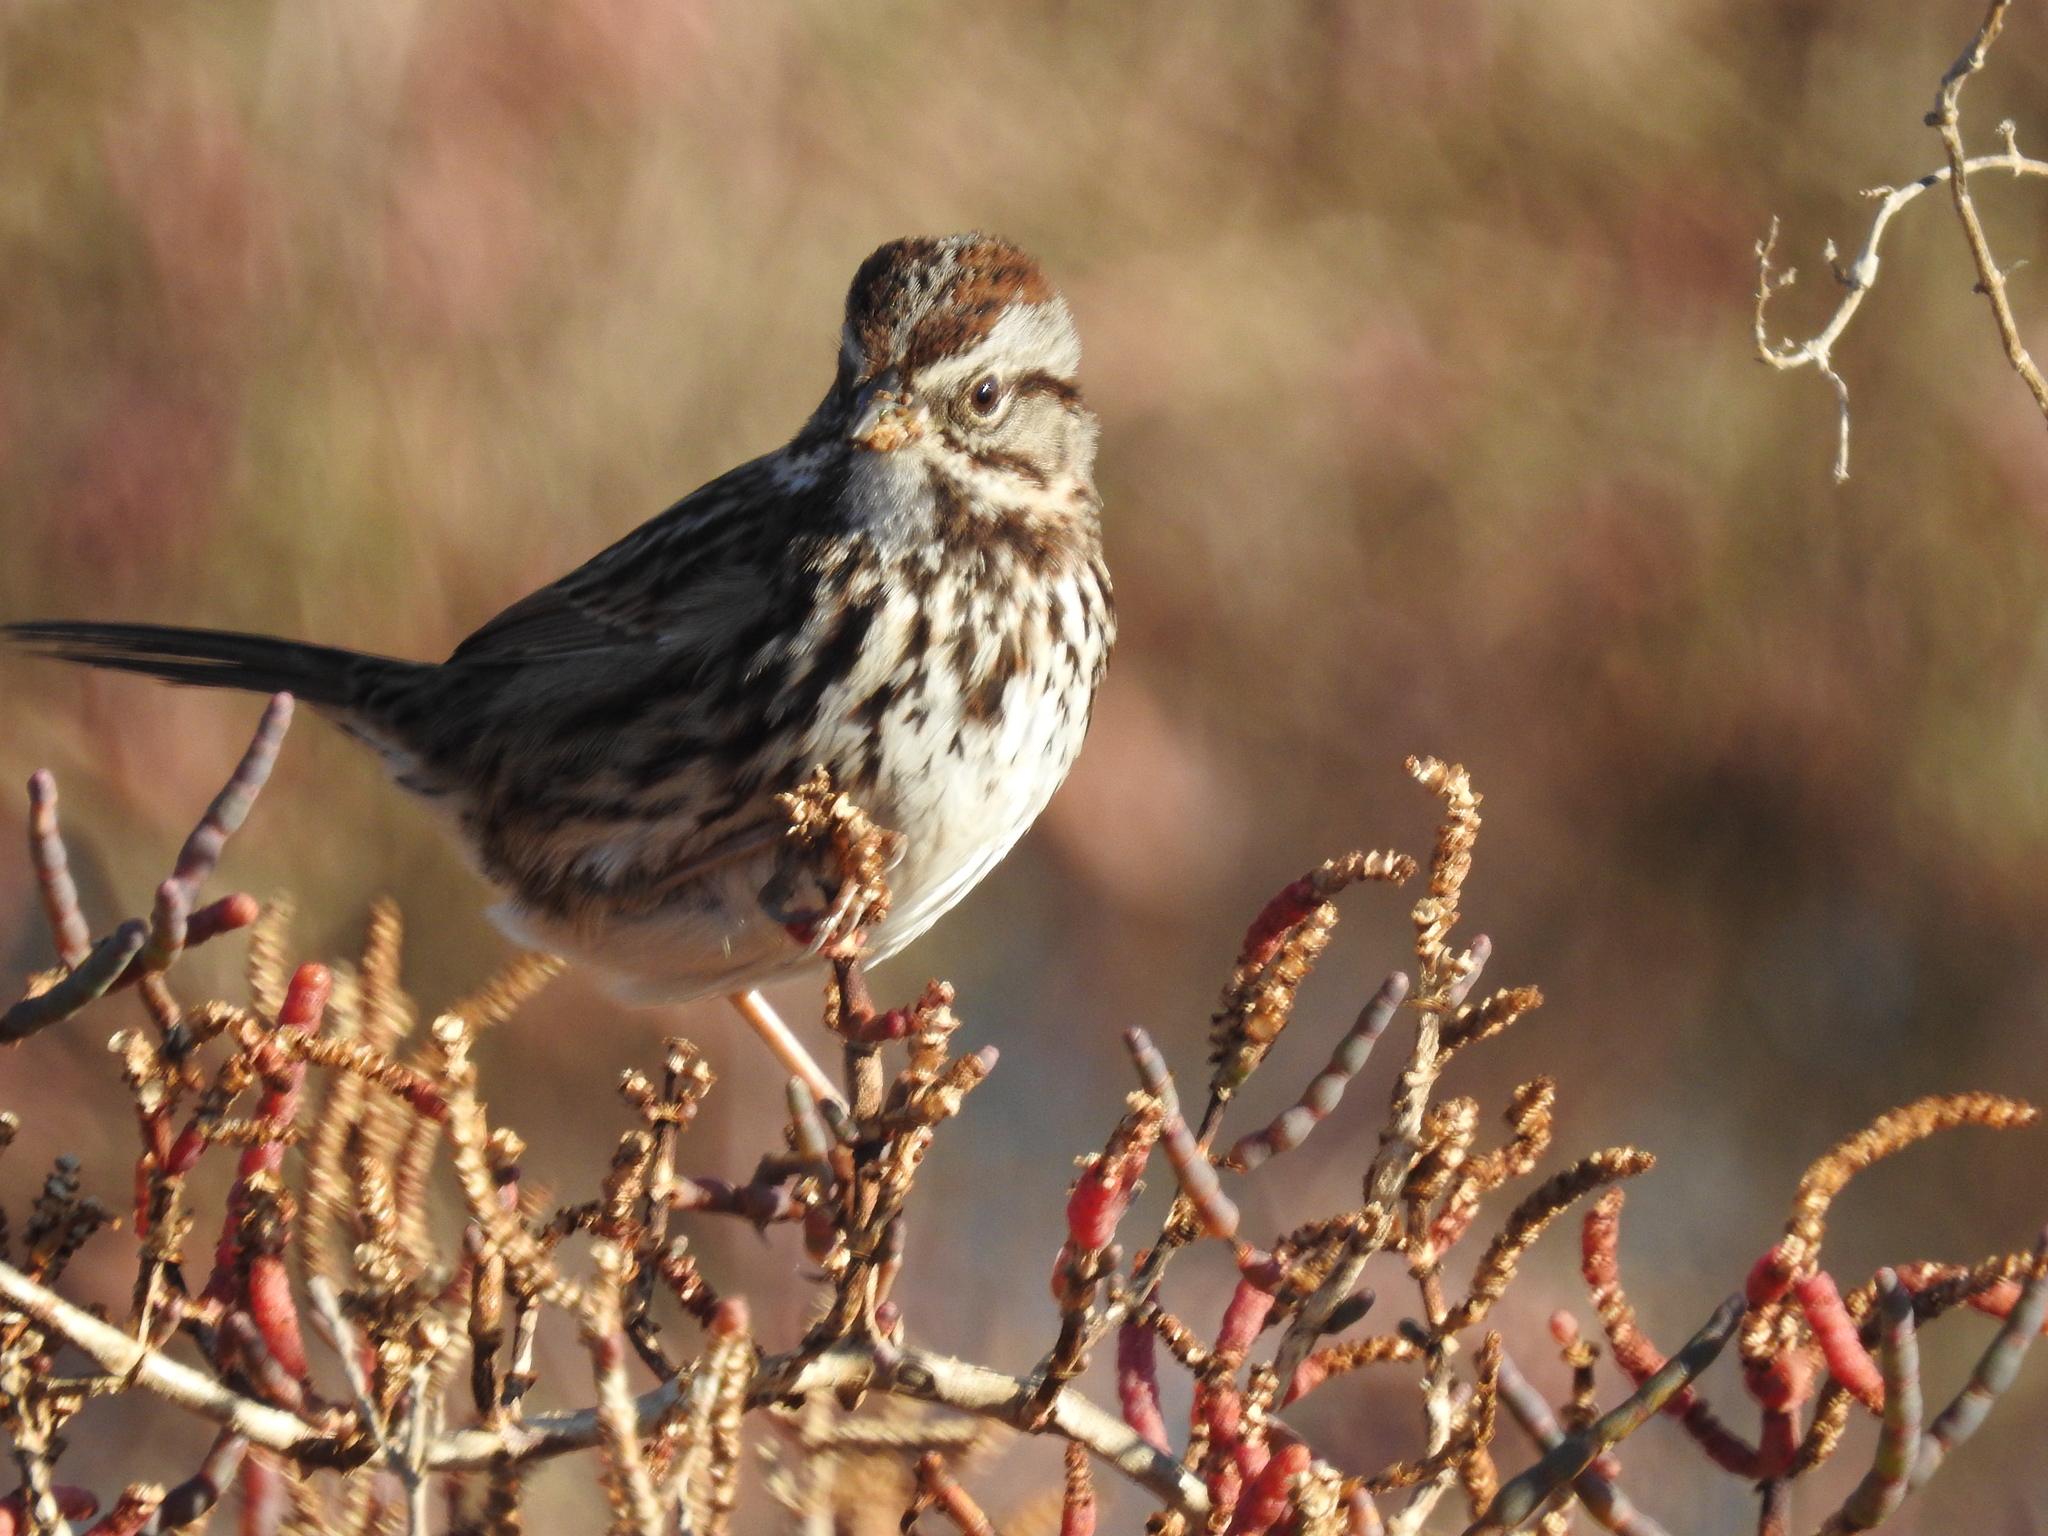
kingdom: Animalia
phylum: Chordata
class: Aves
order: Passeriformes
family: Passerellidae
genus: Melospiza
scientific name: Melospiza melodia
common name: Song sparrow
